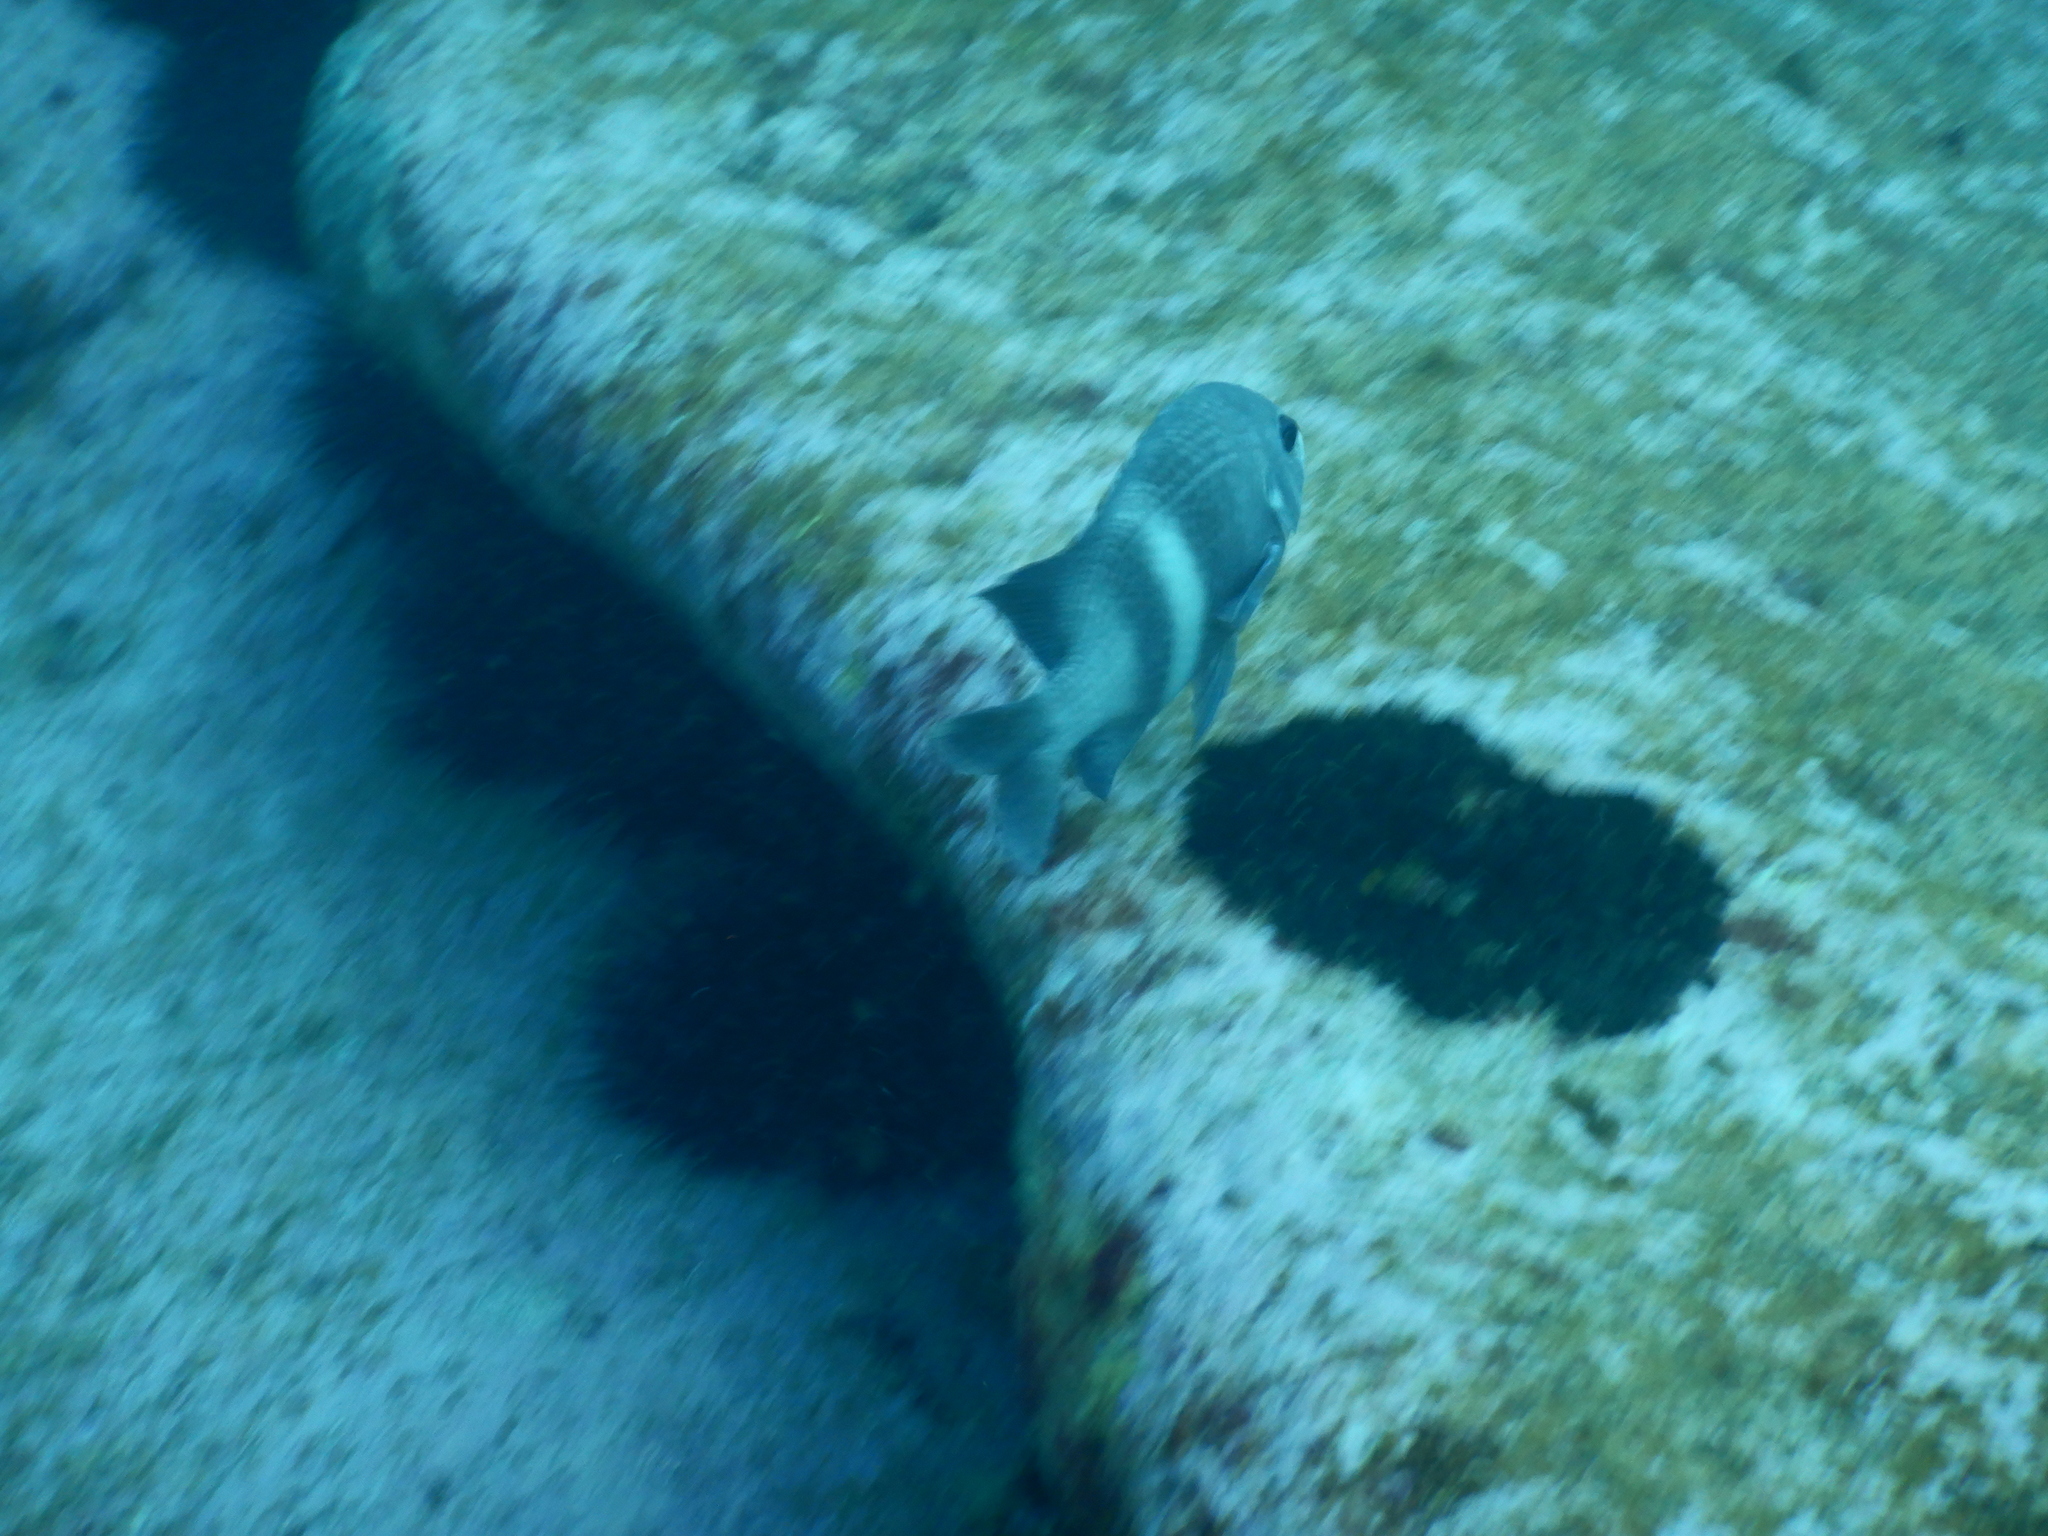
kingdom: Animalia
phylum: Chordata
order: Perciformes
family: Pomacentridae
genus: Parma
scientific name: Parma unifasciata
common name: Girdled parma
